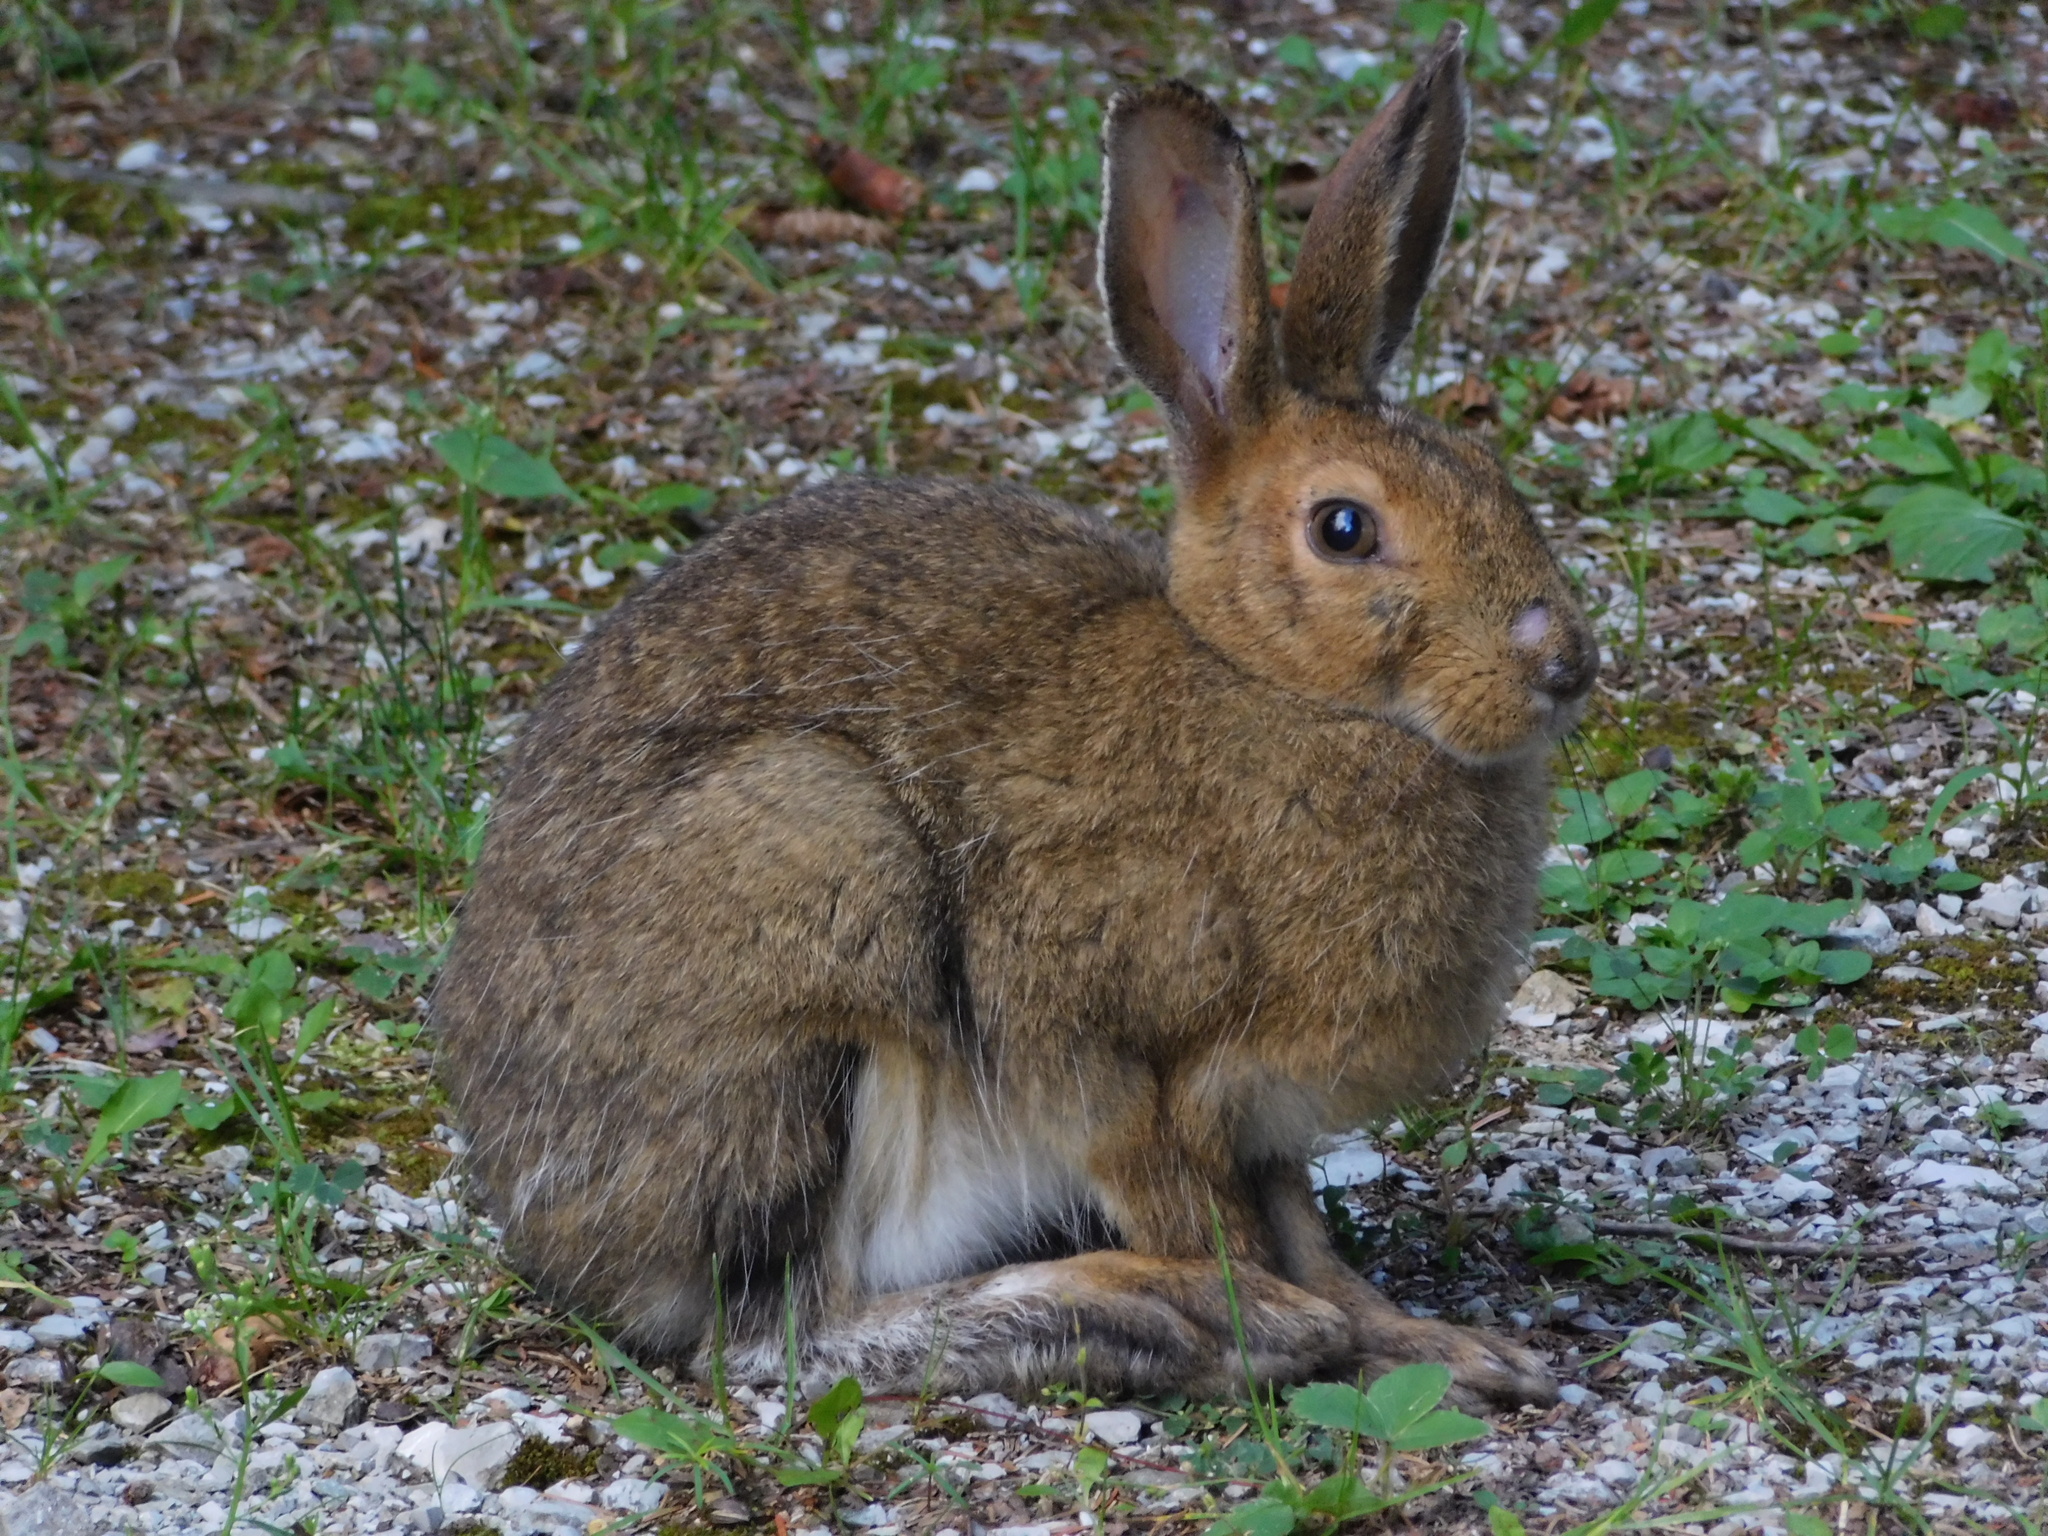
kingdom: Animalia
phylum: Chordata
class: Mammalia
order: Lagomorpha
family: Leporidae
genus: Lepus
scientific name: Lepus americanus
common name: Snowshoe hare
